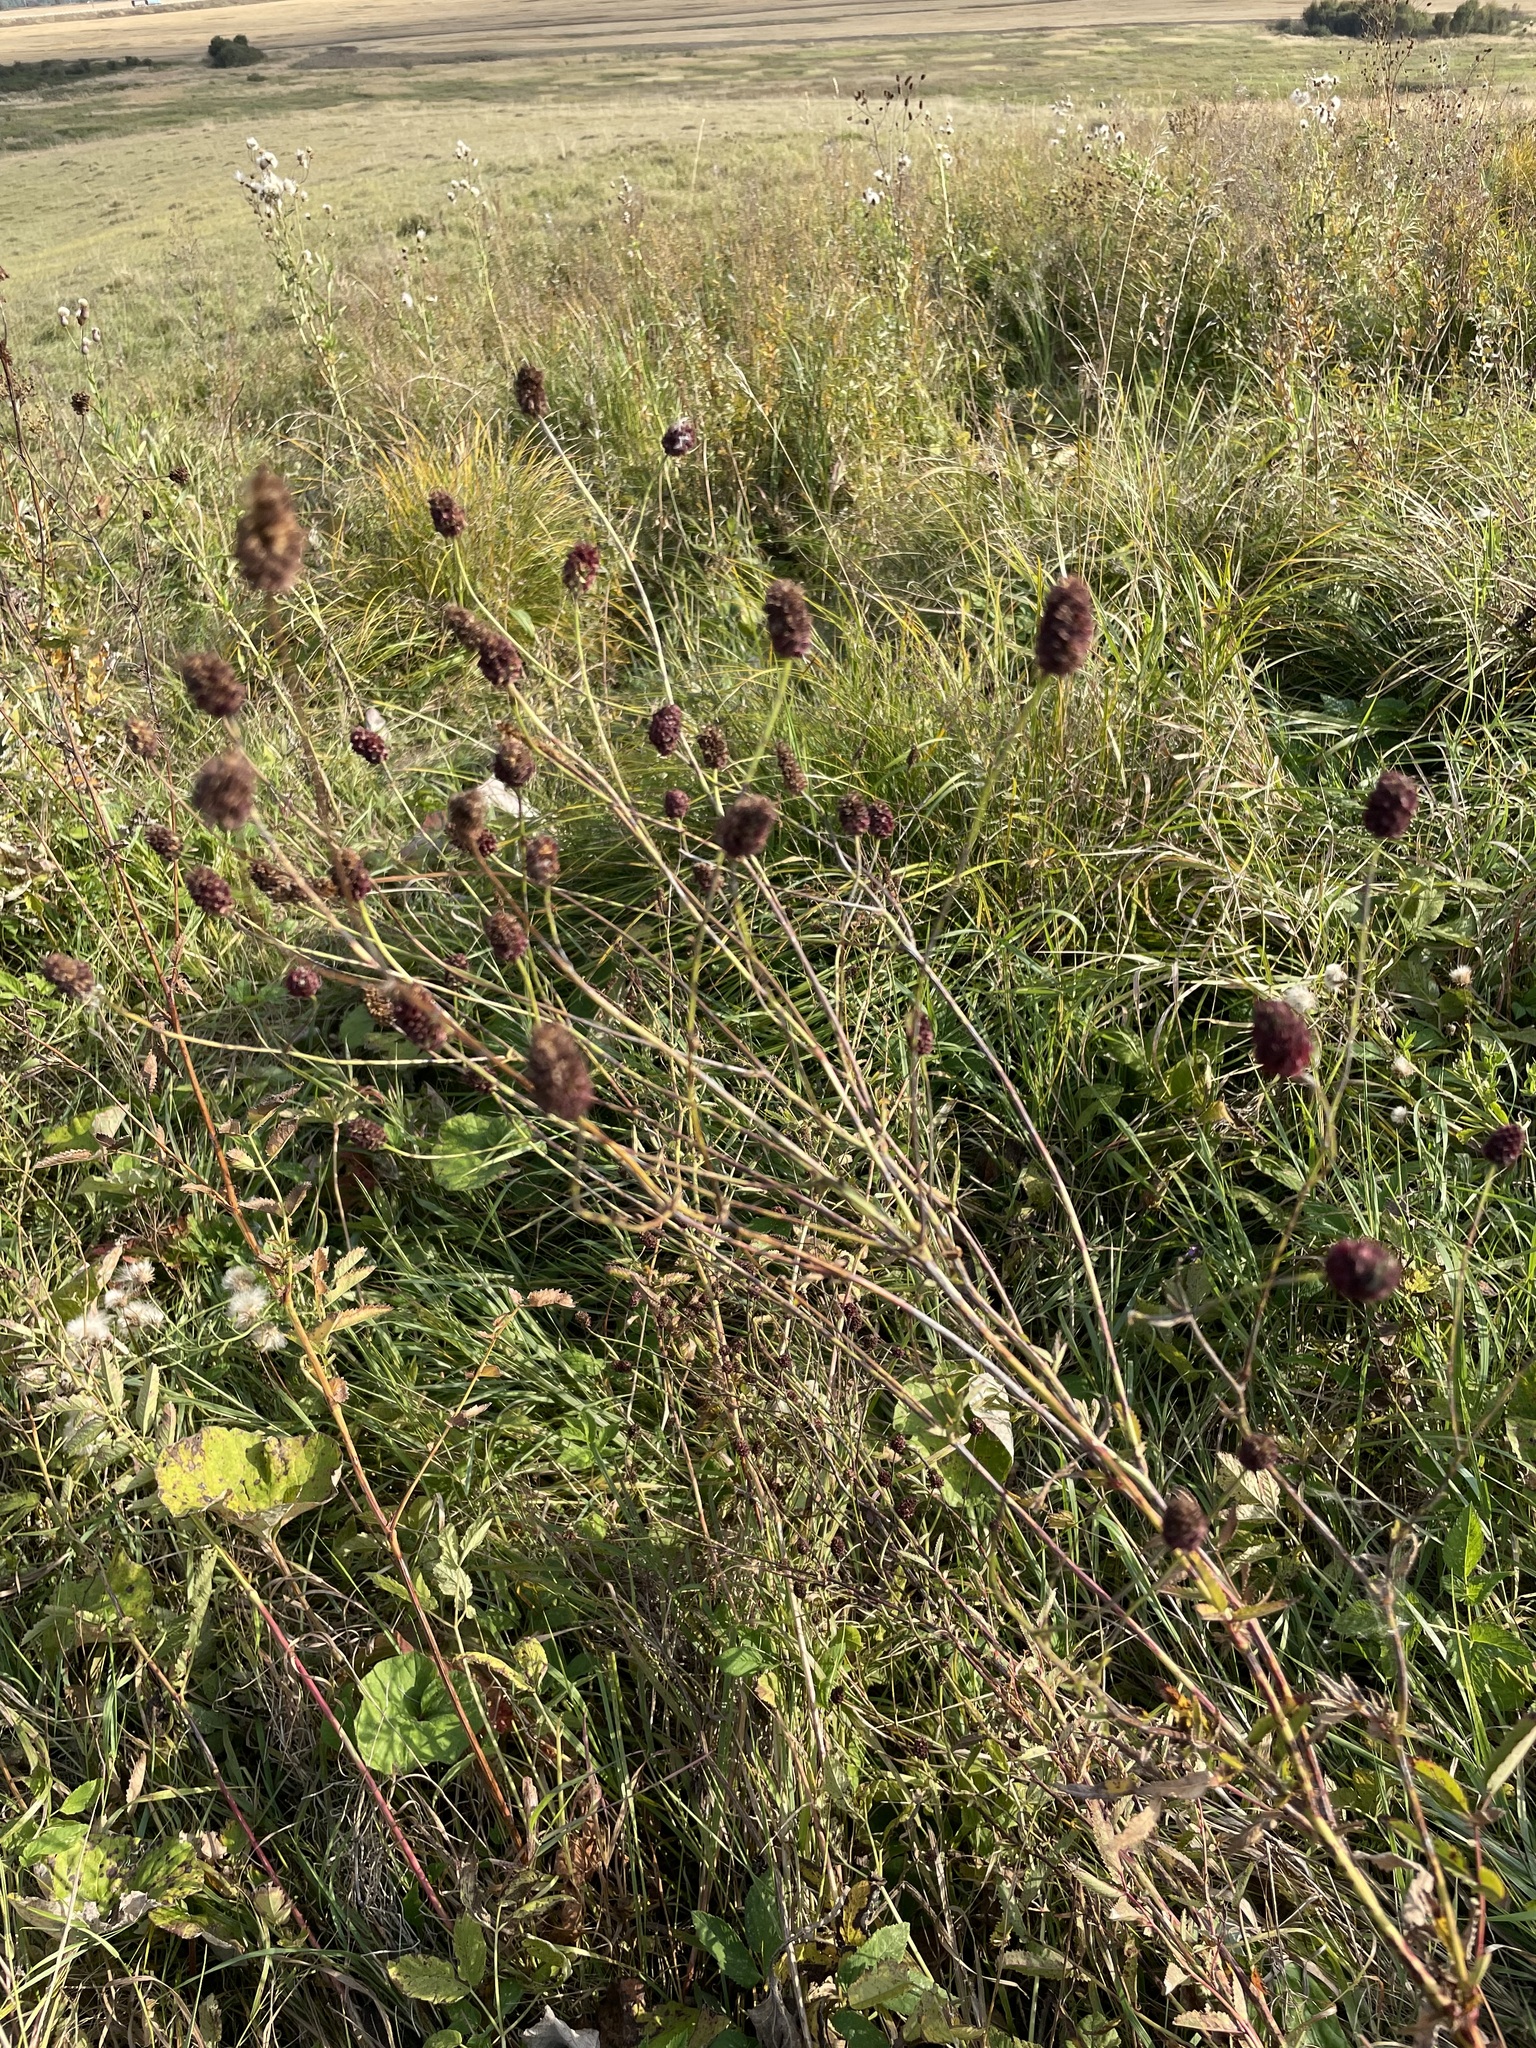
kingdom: Plantae
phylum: Tracheophyta
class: Magnoliopsida
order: Rosales
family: Rosaceae
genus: Sanguisorba
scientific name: Sanguisorba officinalis
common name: Great burnet
